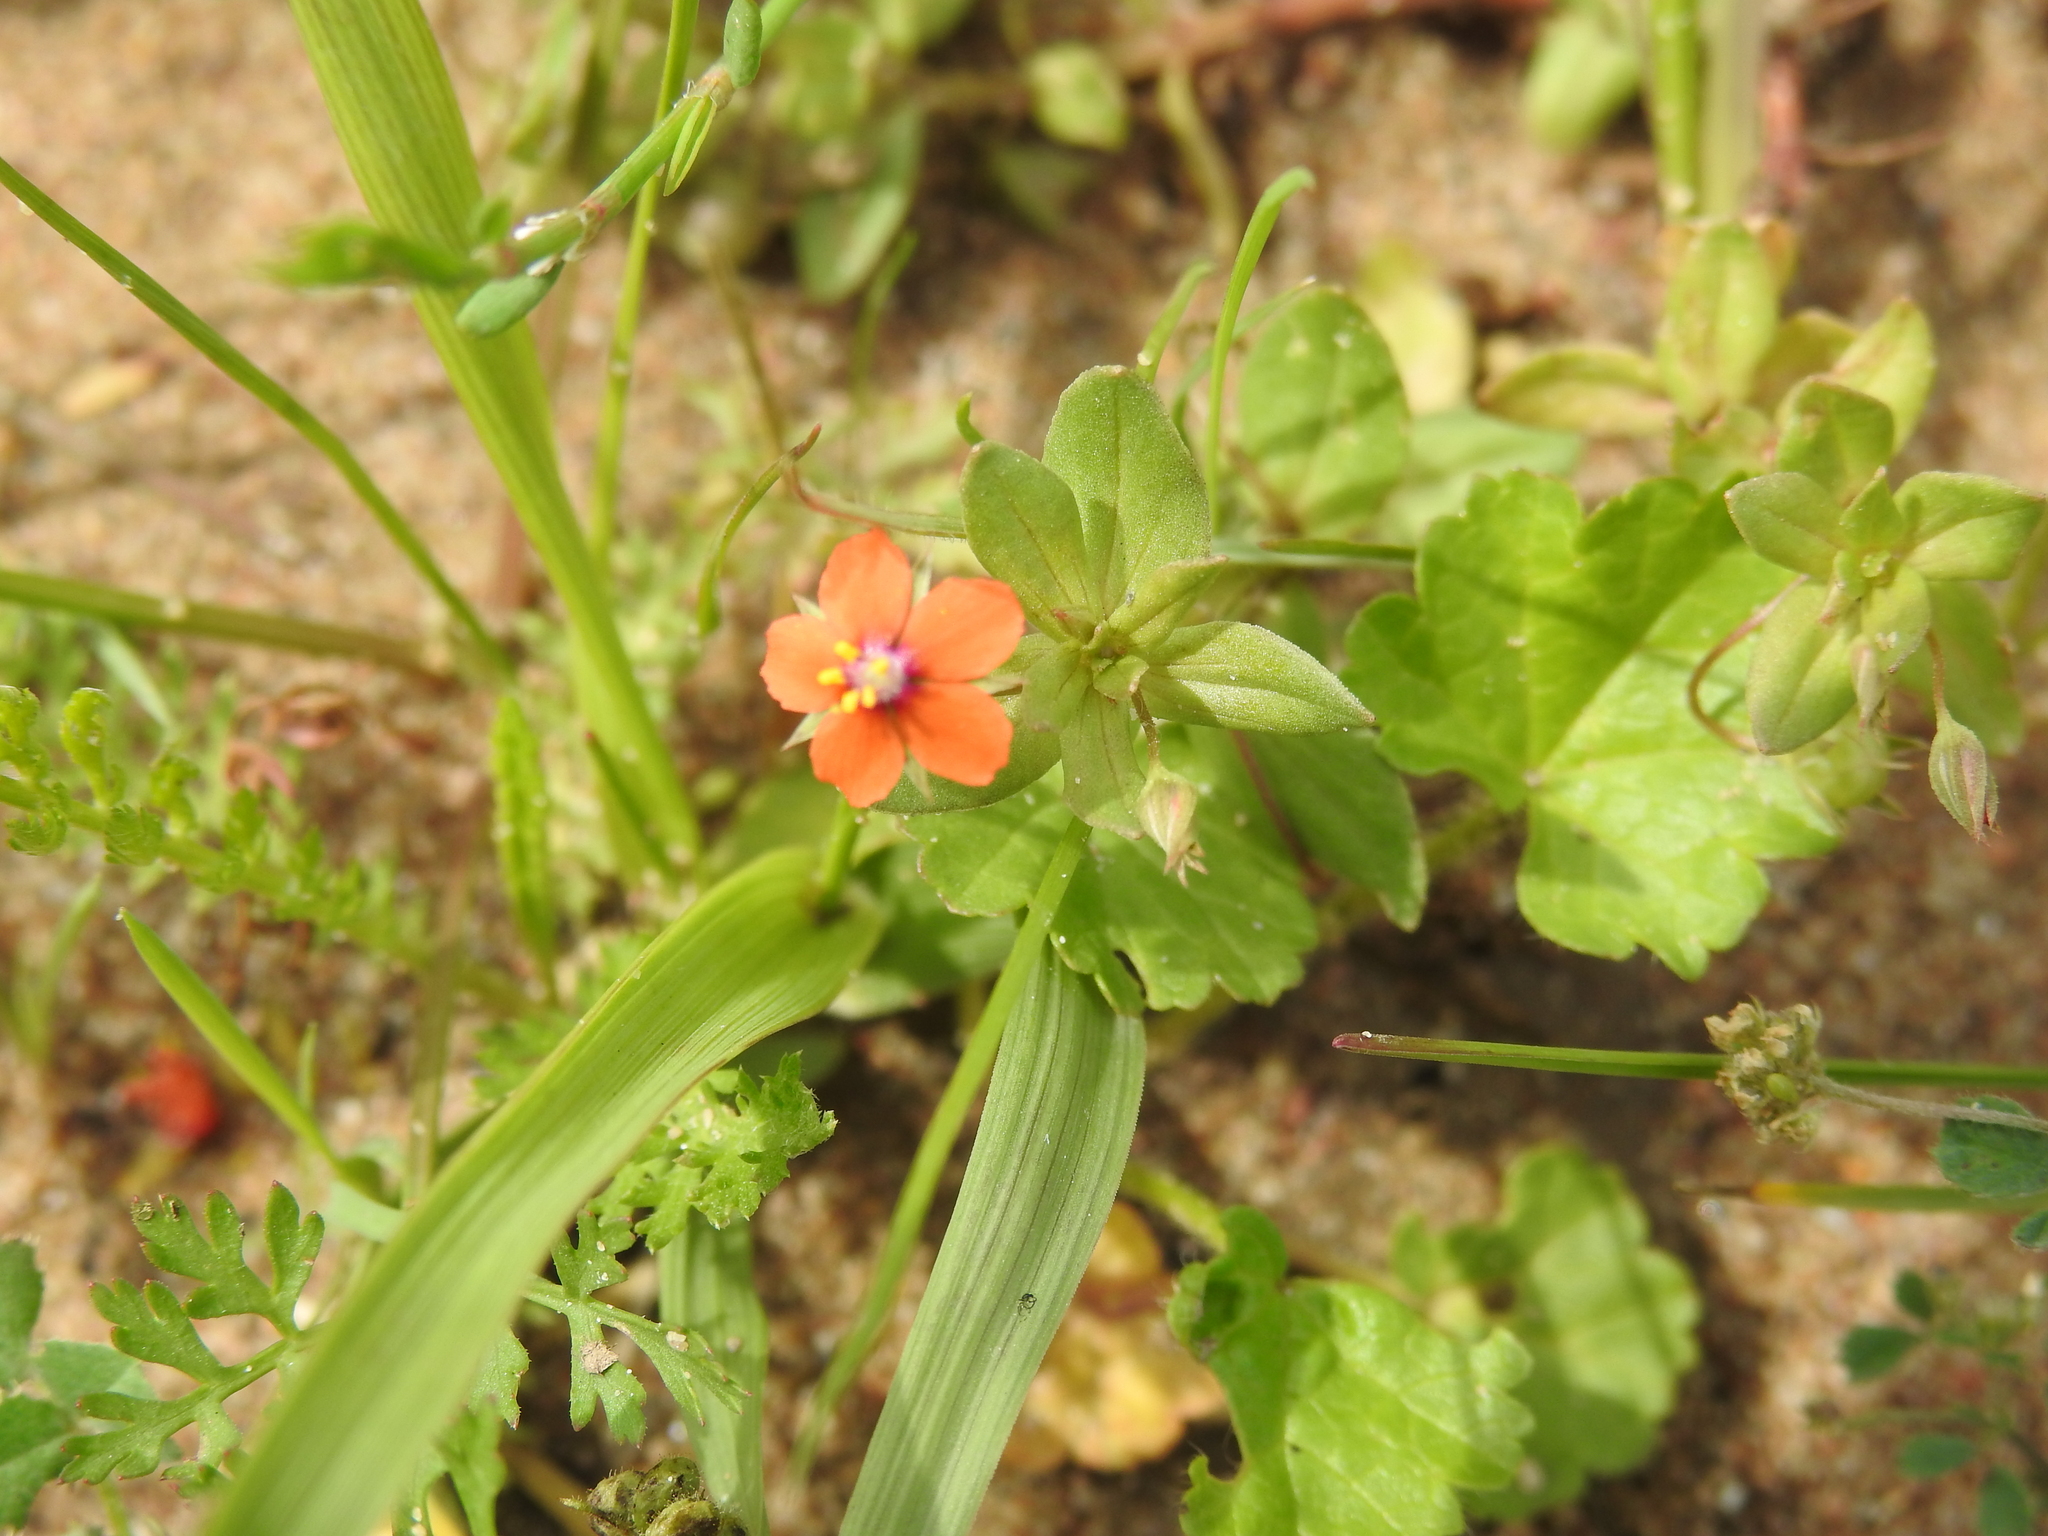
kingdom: Plantae
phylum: Tracheophyta
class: Magnoliopsida
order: Ericales
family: Primulaceae
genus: Lysimachia
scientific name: Lysimachia arvensis
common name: Scarlet pimpernel
